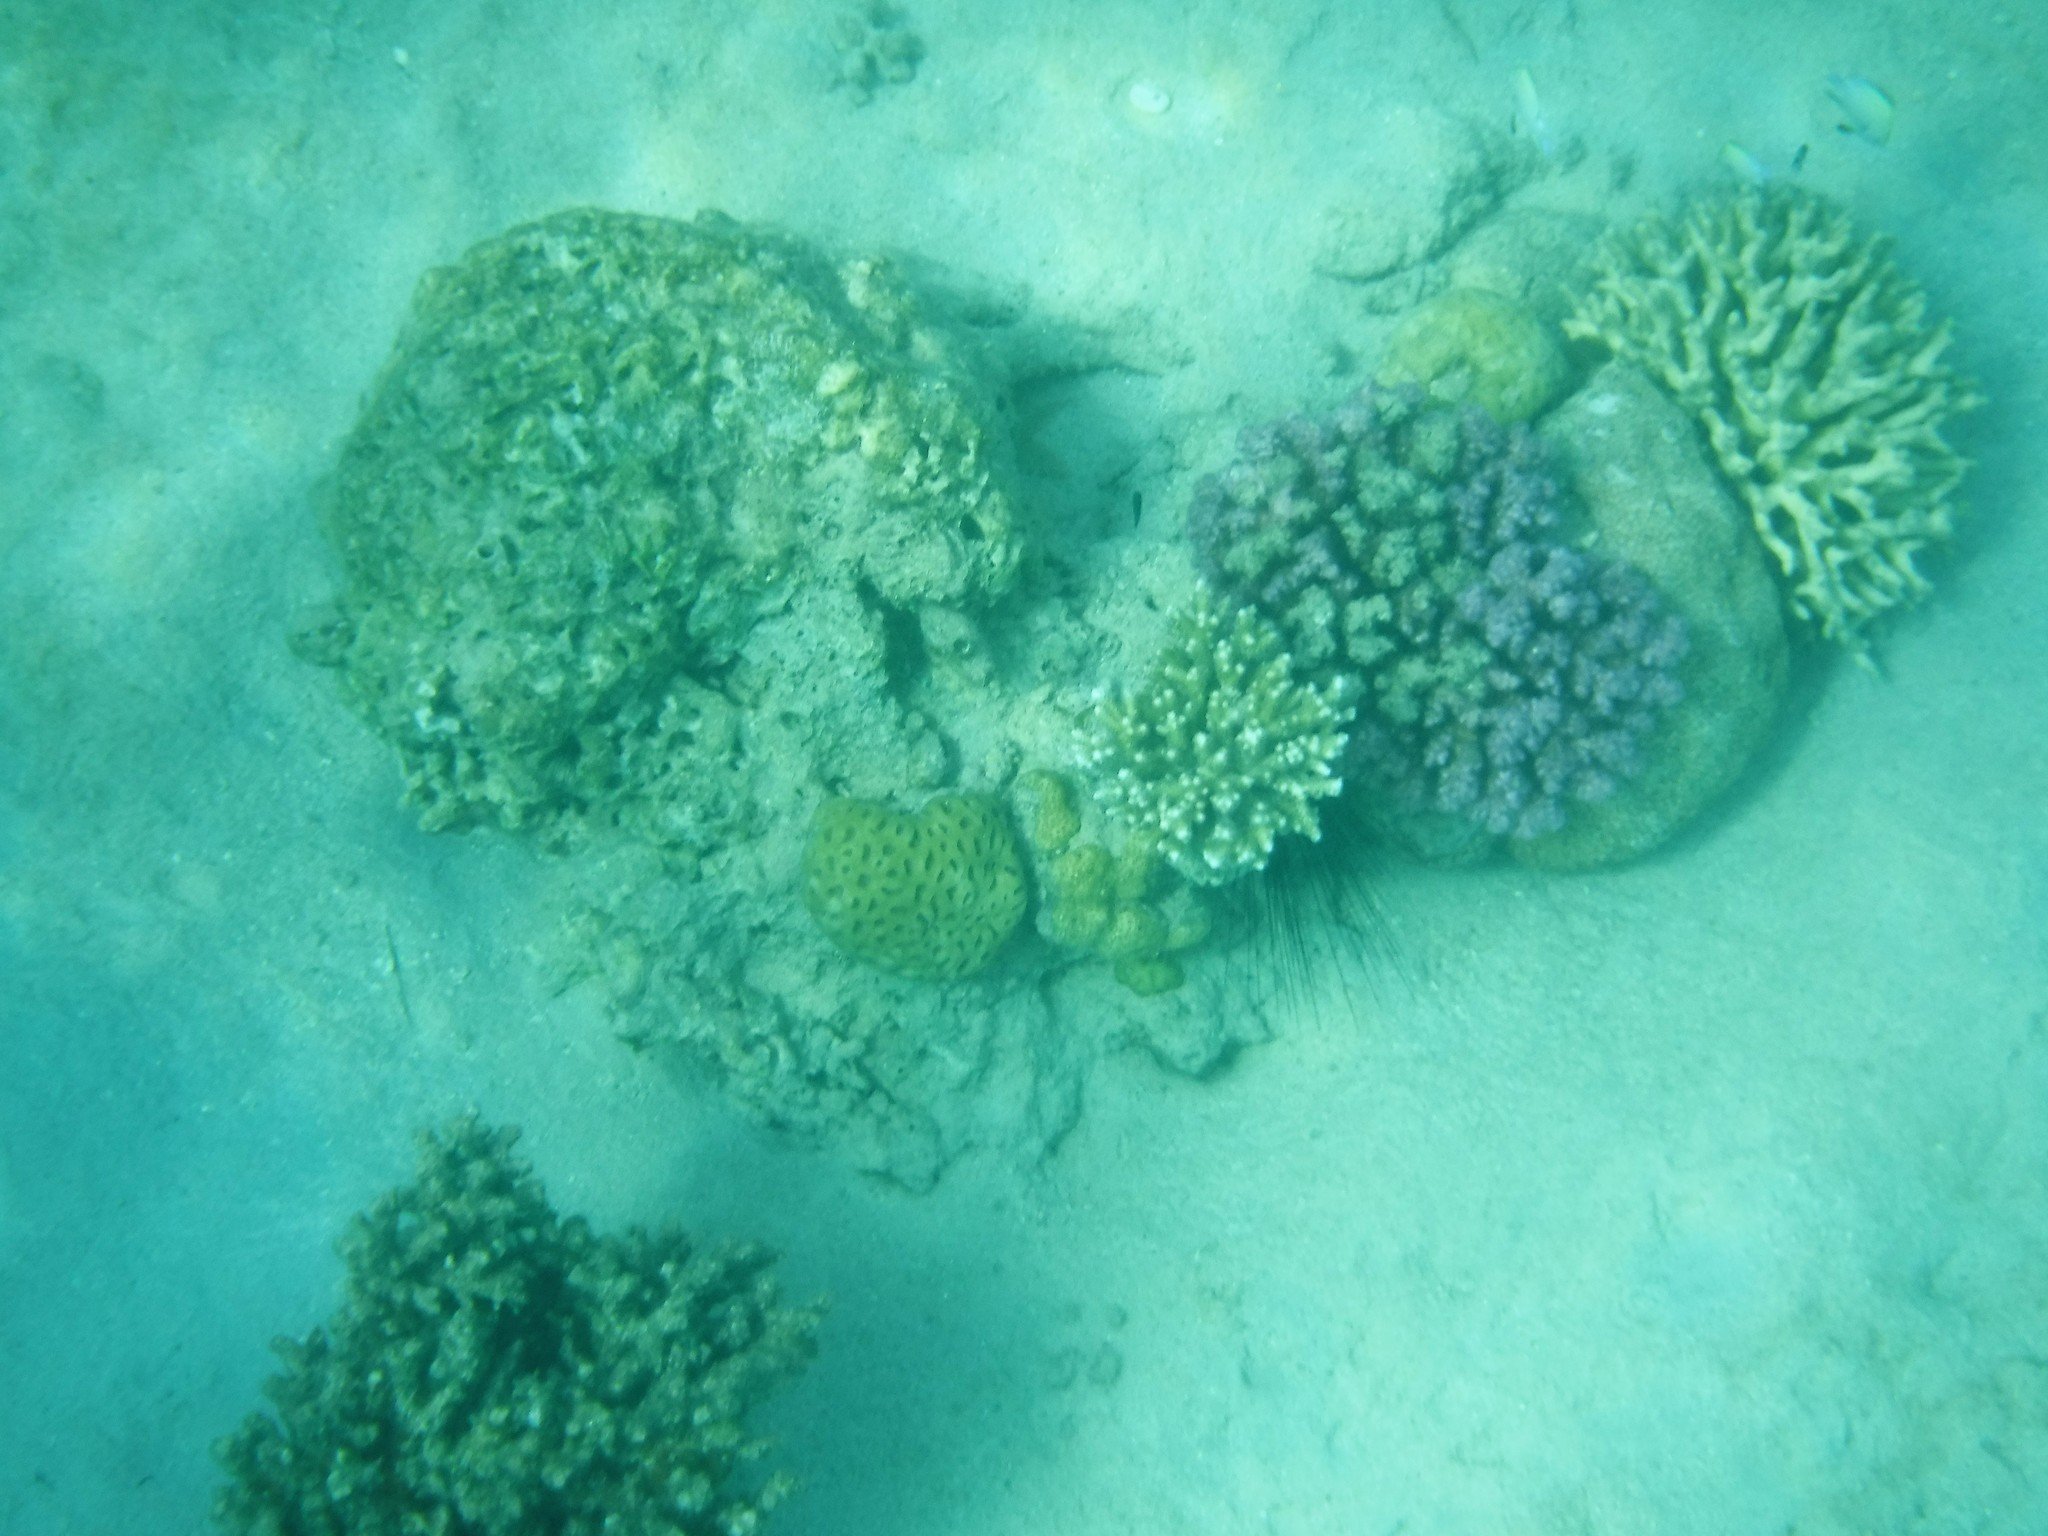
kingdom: Animalia
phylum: Cnidaria
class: Anthozoa
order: Scleractinia
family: Acroporidae
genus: Acropora
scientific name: Acropora
